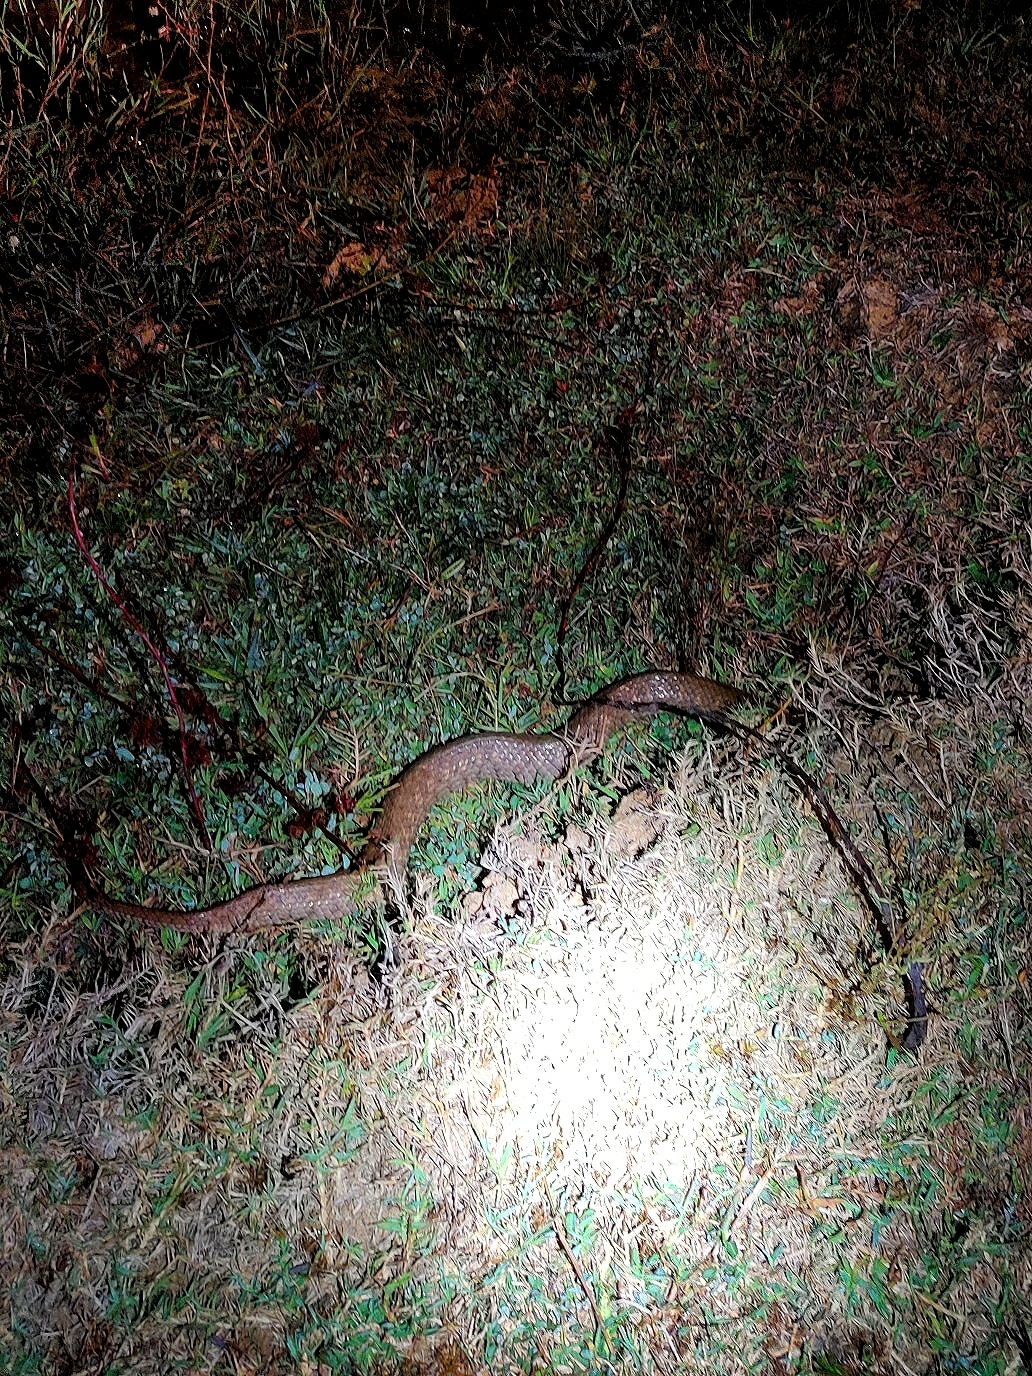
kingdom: Animalia
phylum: Chordata
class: Squamata
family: Colubridae
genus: Fowlea
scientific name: Fowlea piscator
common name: Asiatic water snake
